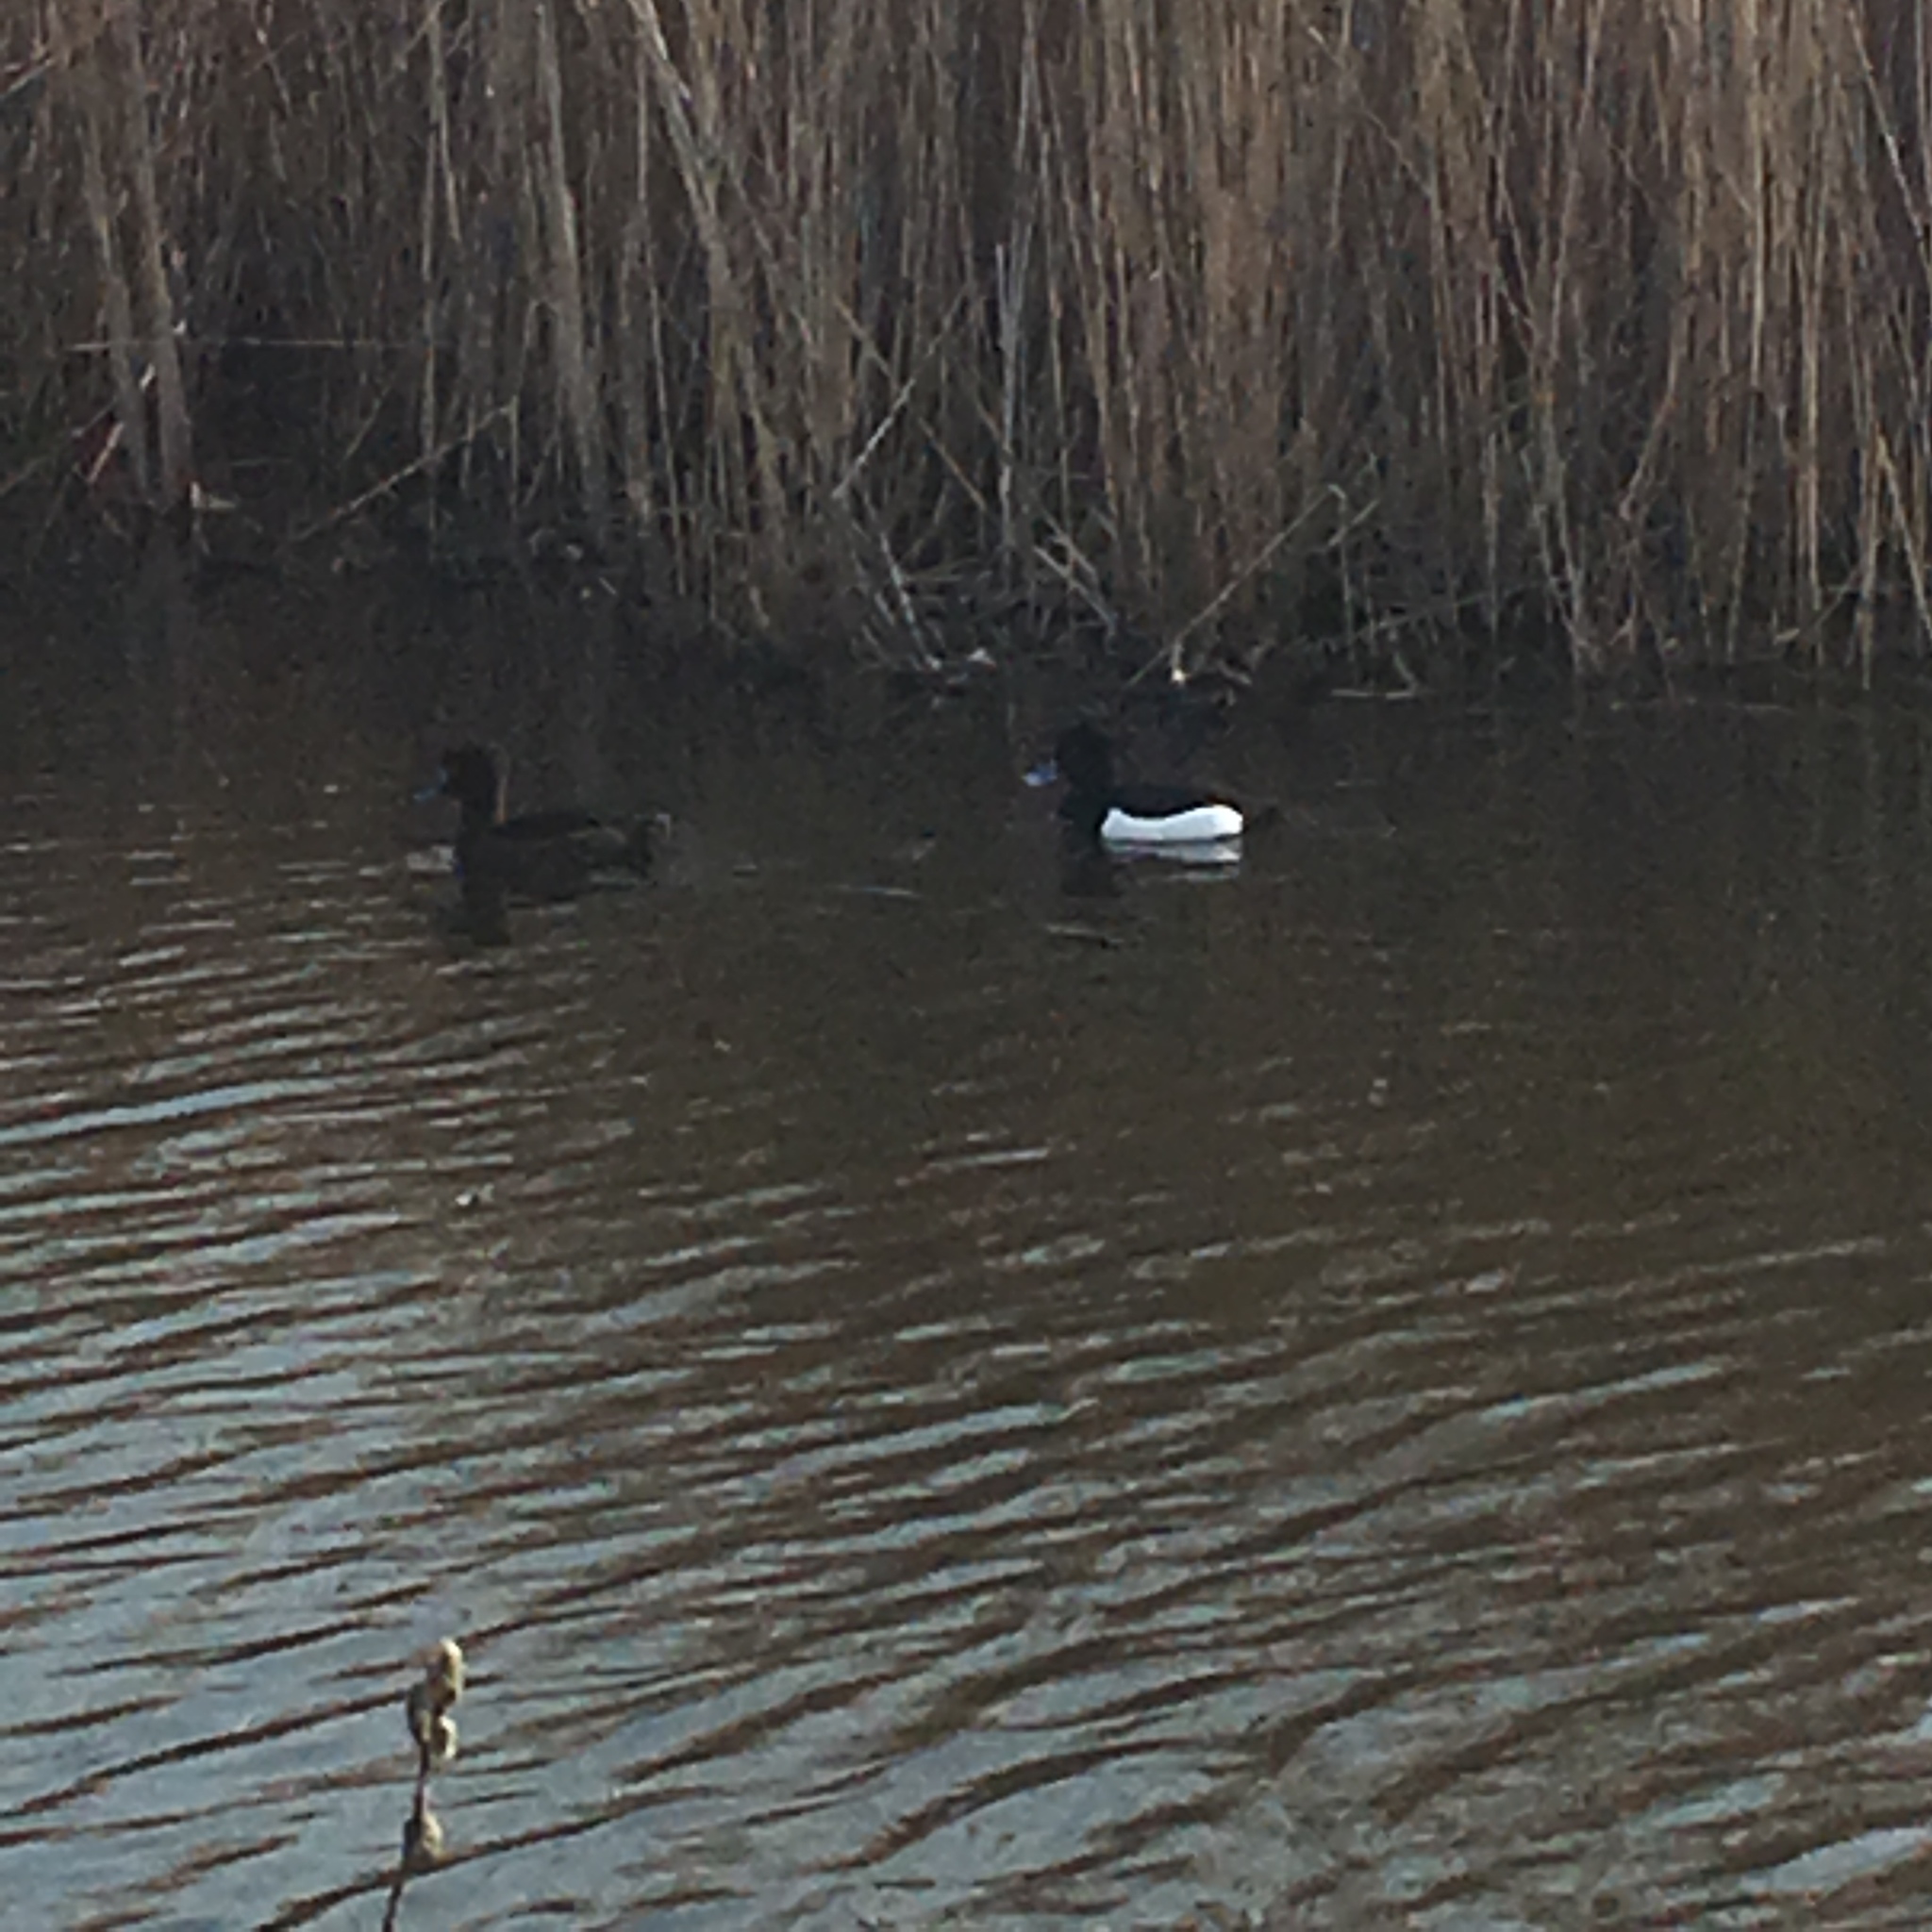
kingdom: Animalia
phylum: Chordata
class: Aves
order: Anseriformes
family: Anatidae
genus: Aythya
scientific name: Aythya fuligula
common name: Tufted duck
